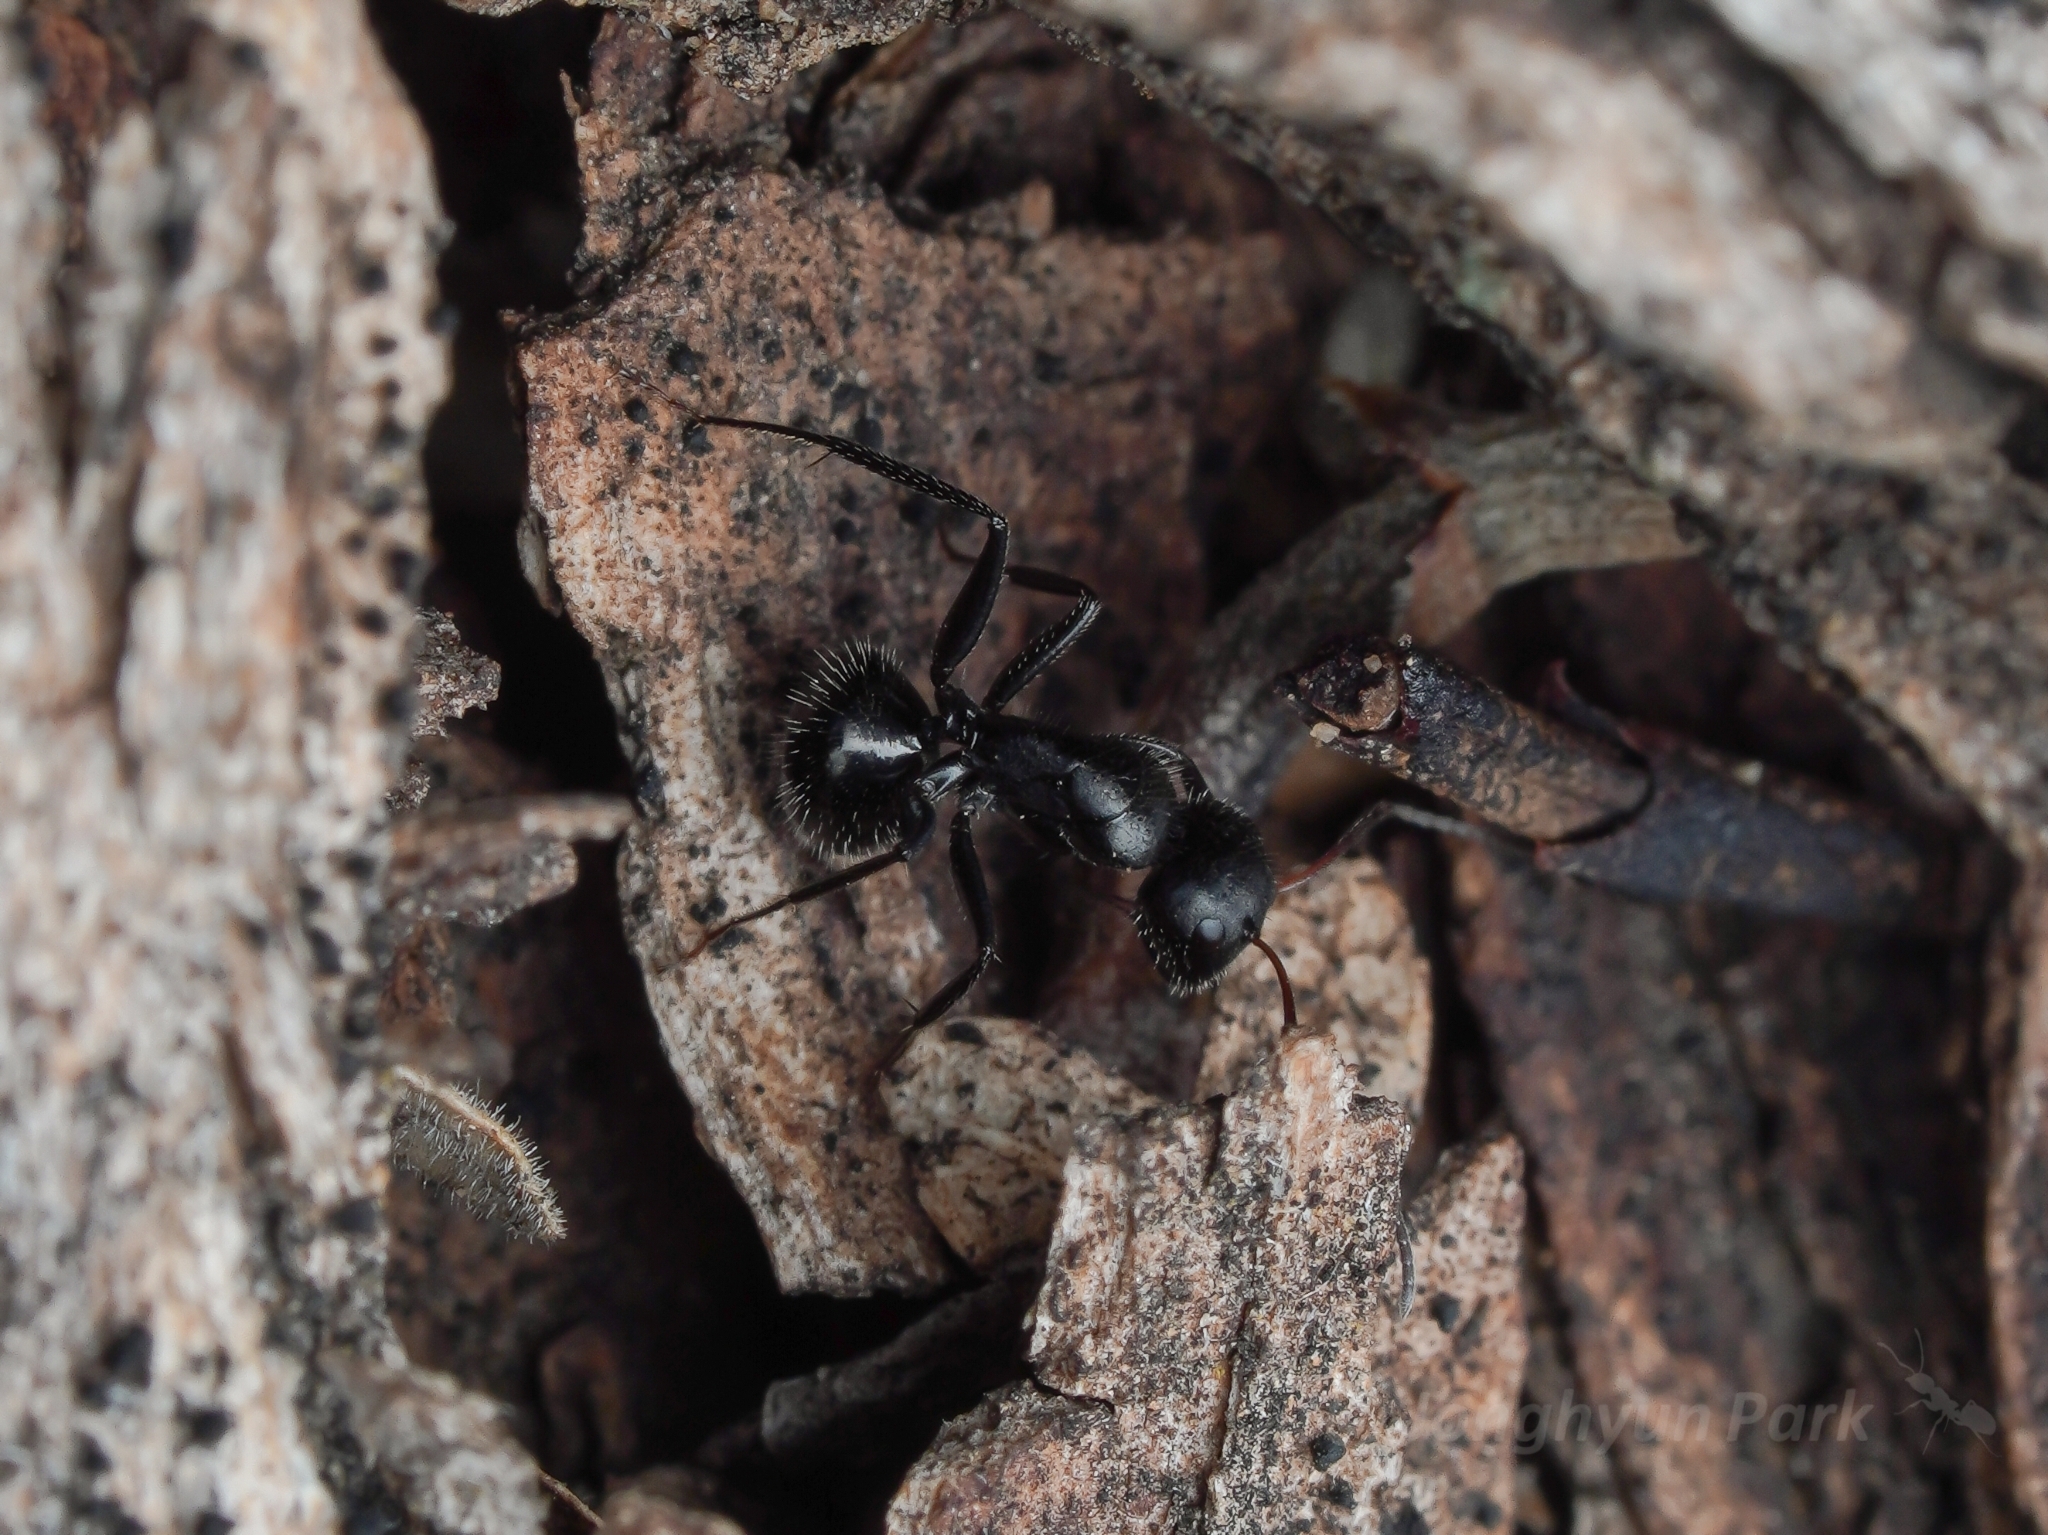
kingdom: Animalia
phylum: Arthropoda
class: Insecta
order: Hymenoptera
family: Formicidae
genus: Camponotus
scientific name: Camponotus mina
